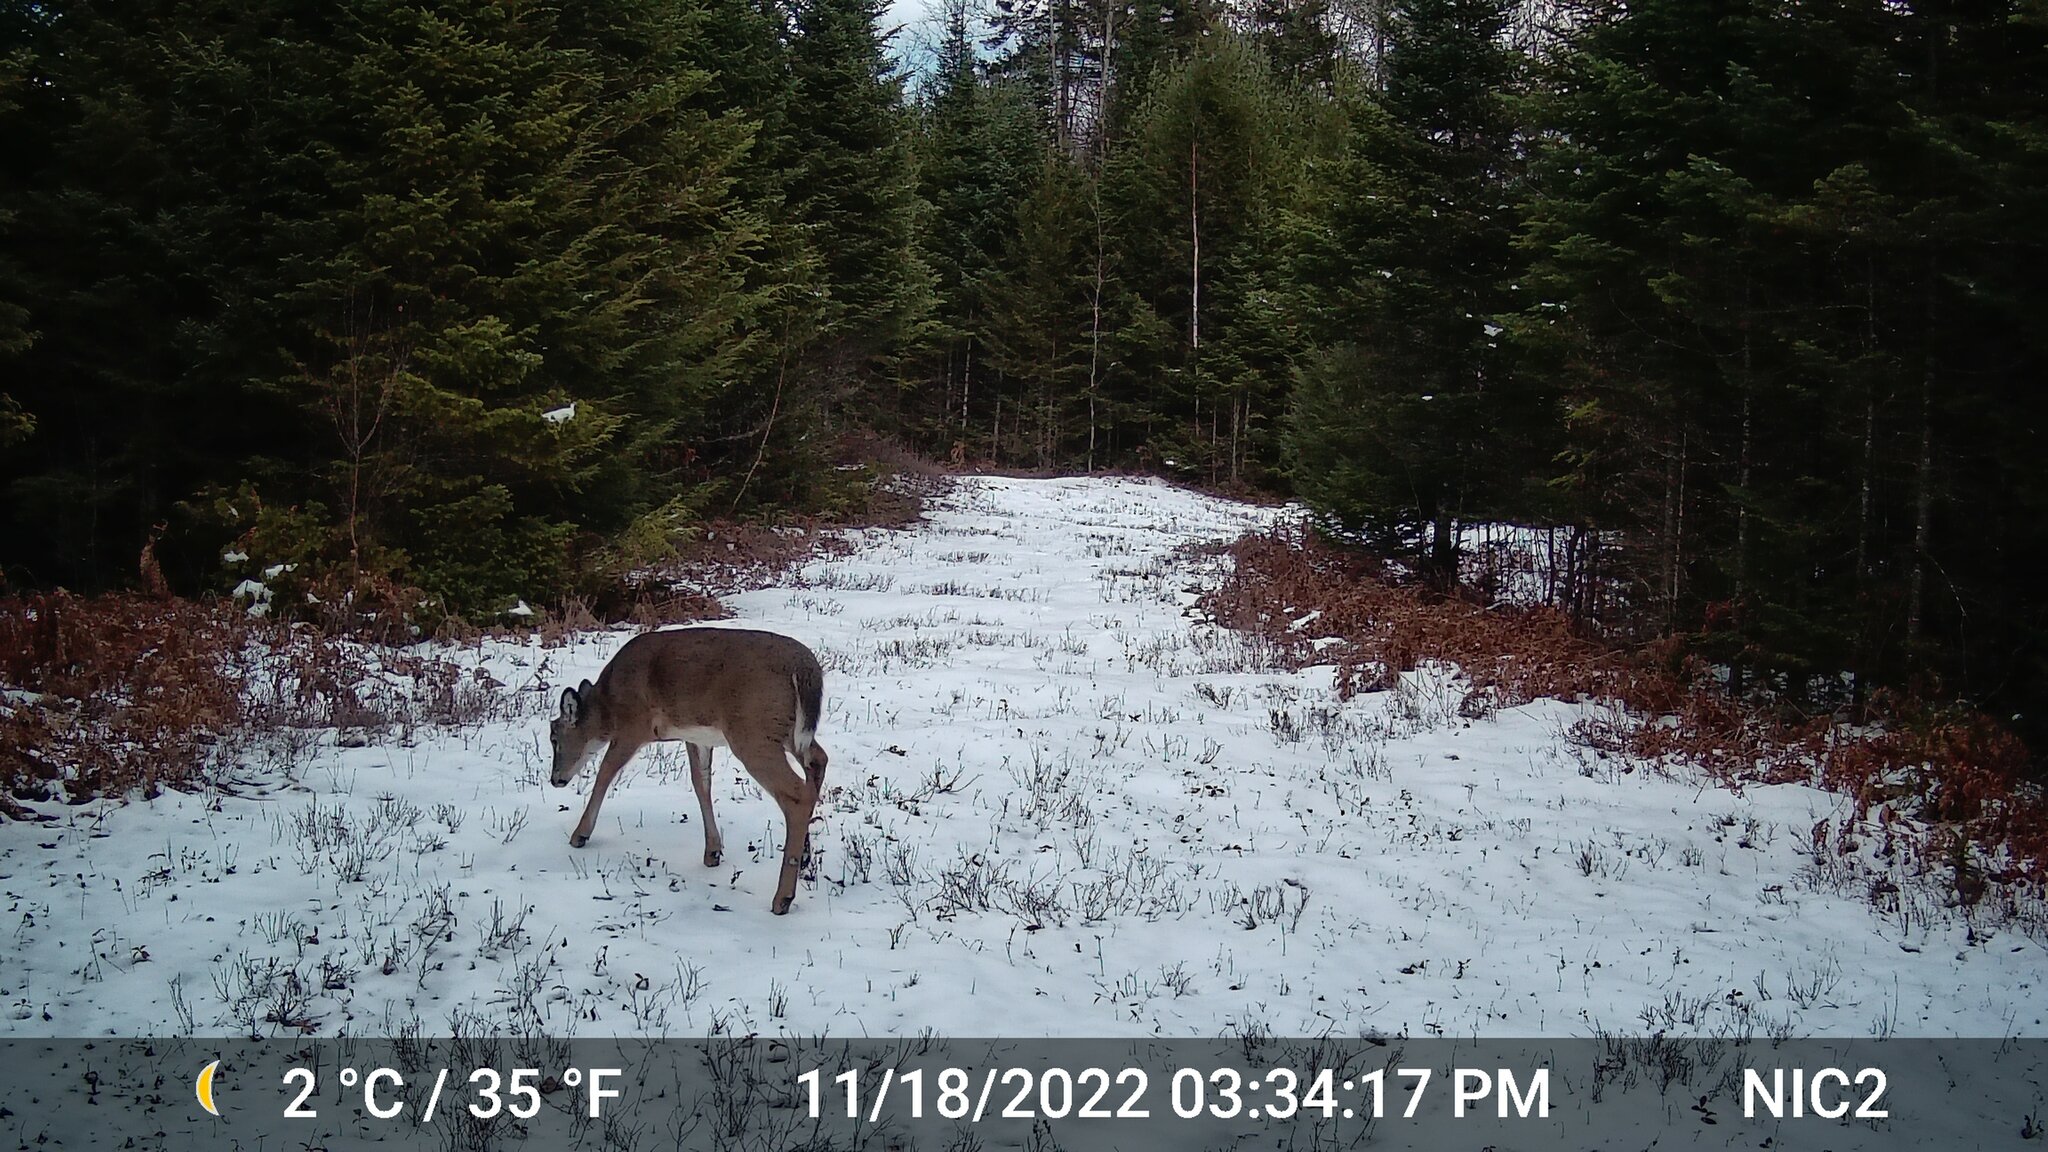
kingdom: Animalia
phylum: Chordata
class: Mammalia
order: Artiodactyla
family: Cervidae
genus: Odocoileus
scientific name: Odocoileus virginianus
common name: White-tailed deer
